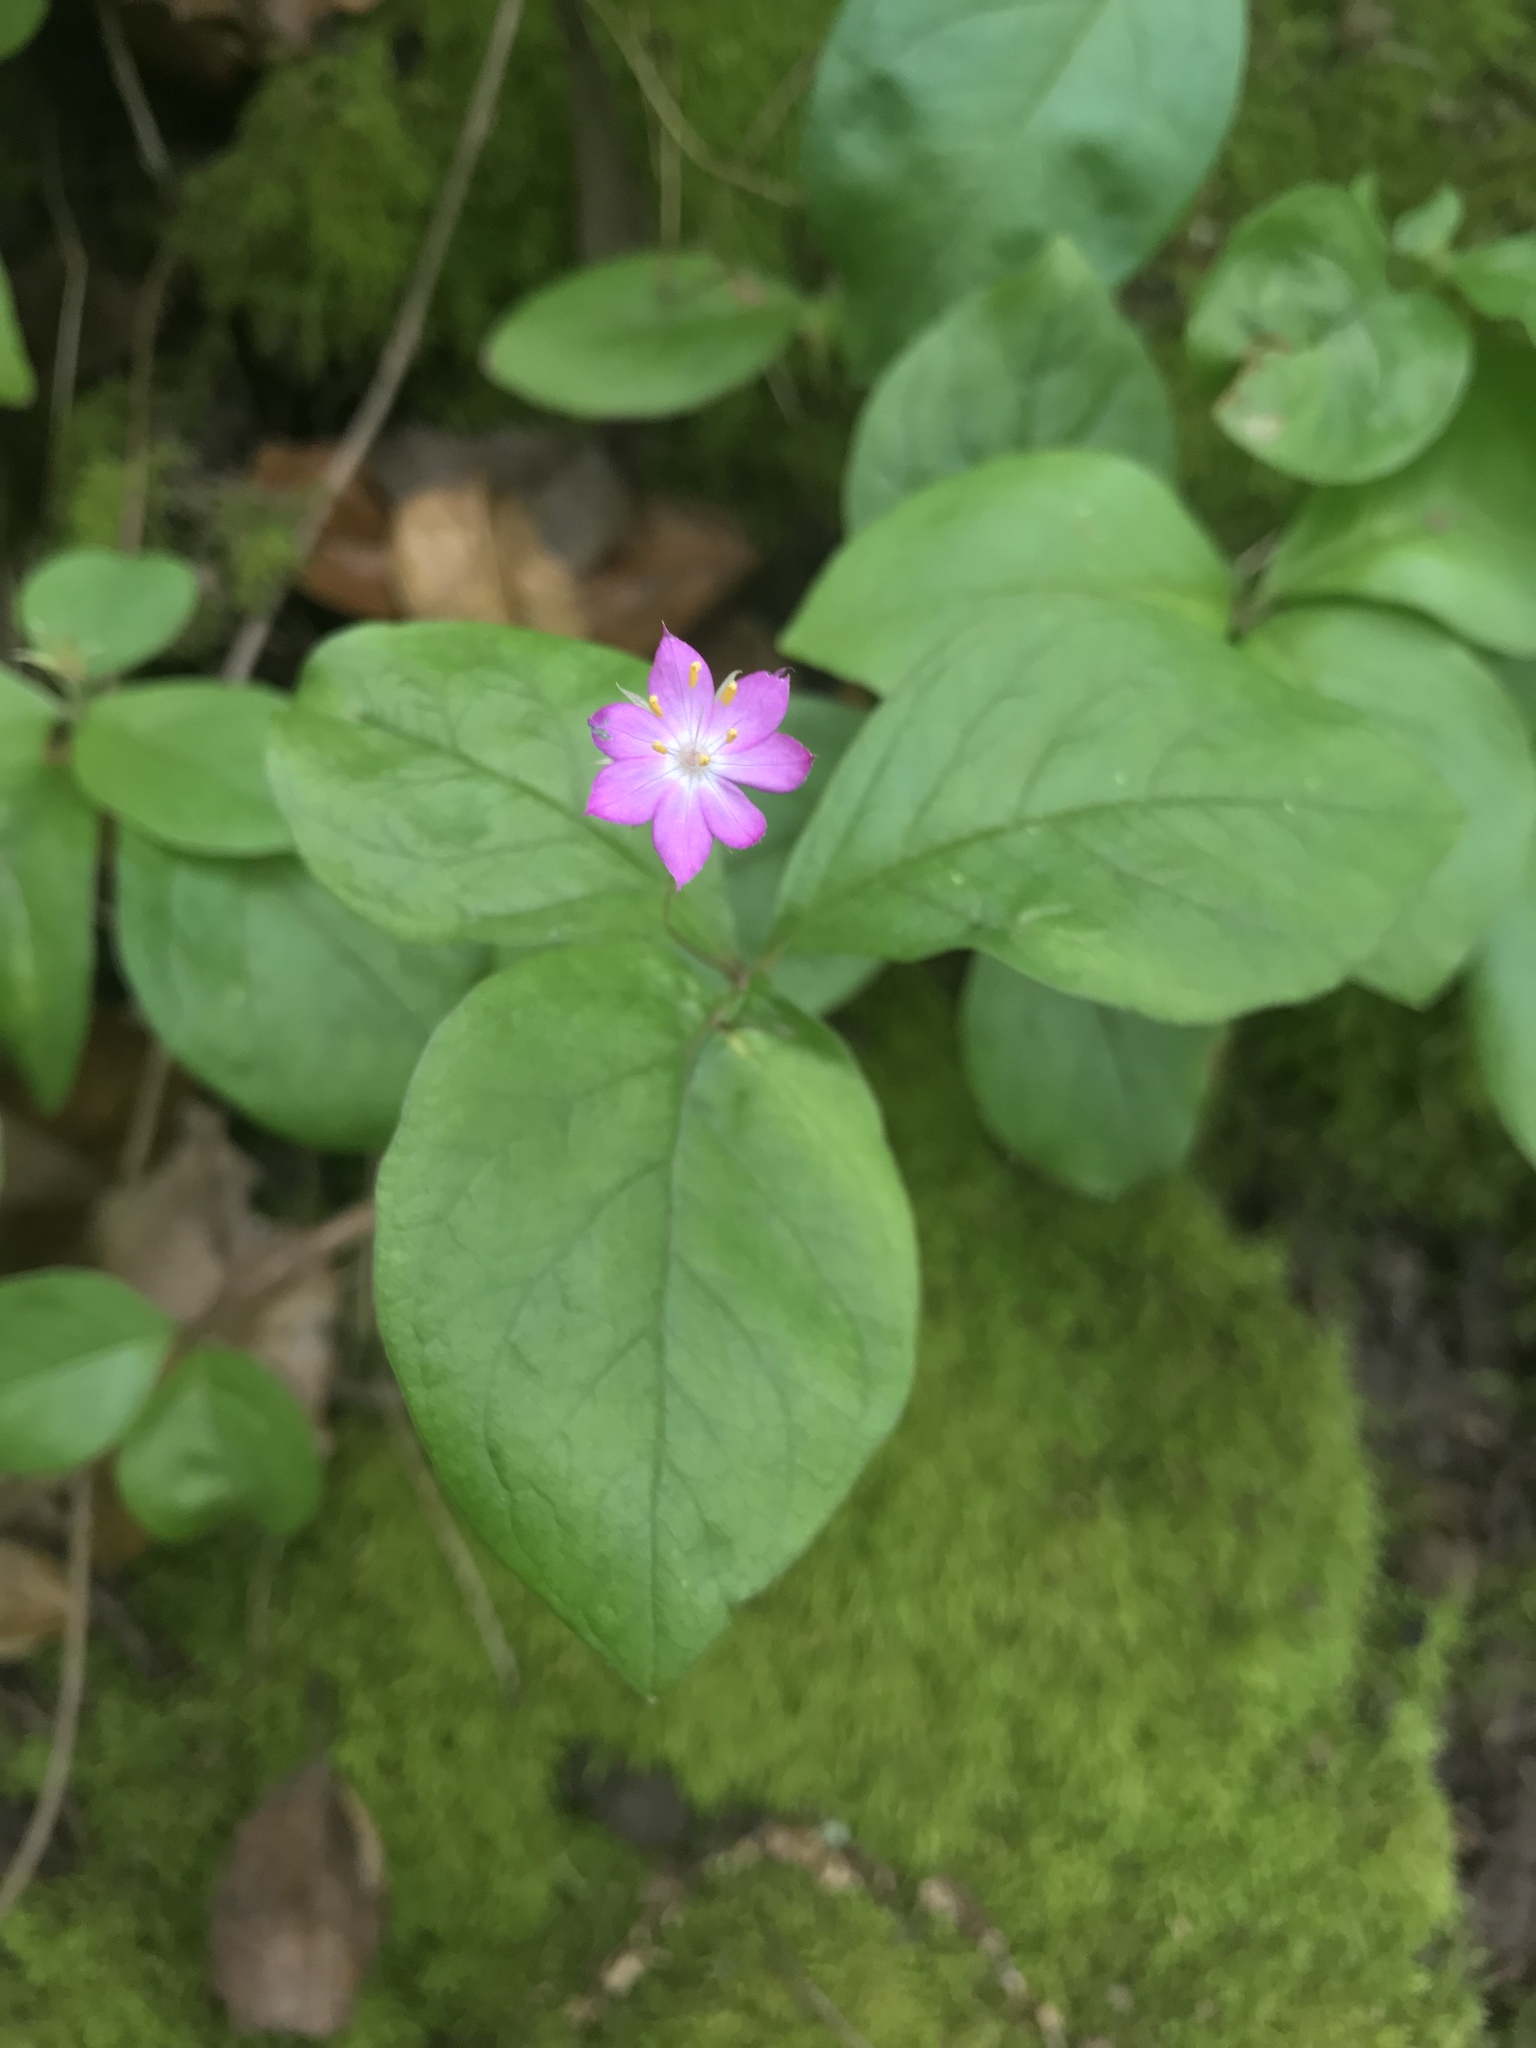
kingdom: Plantae
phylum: Tracheophyta
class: Magnoliopsida
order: Ericales
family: Primulaceae
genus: Lysimachia
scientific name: Lysimachia latifolia
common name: Pacific starflower
